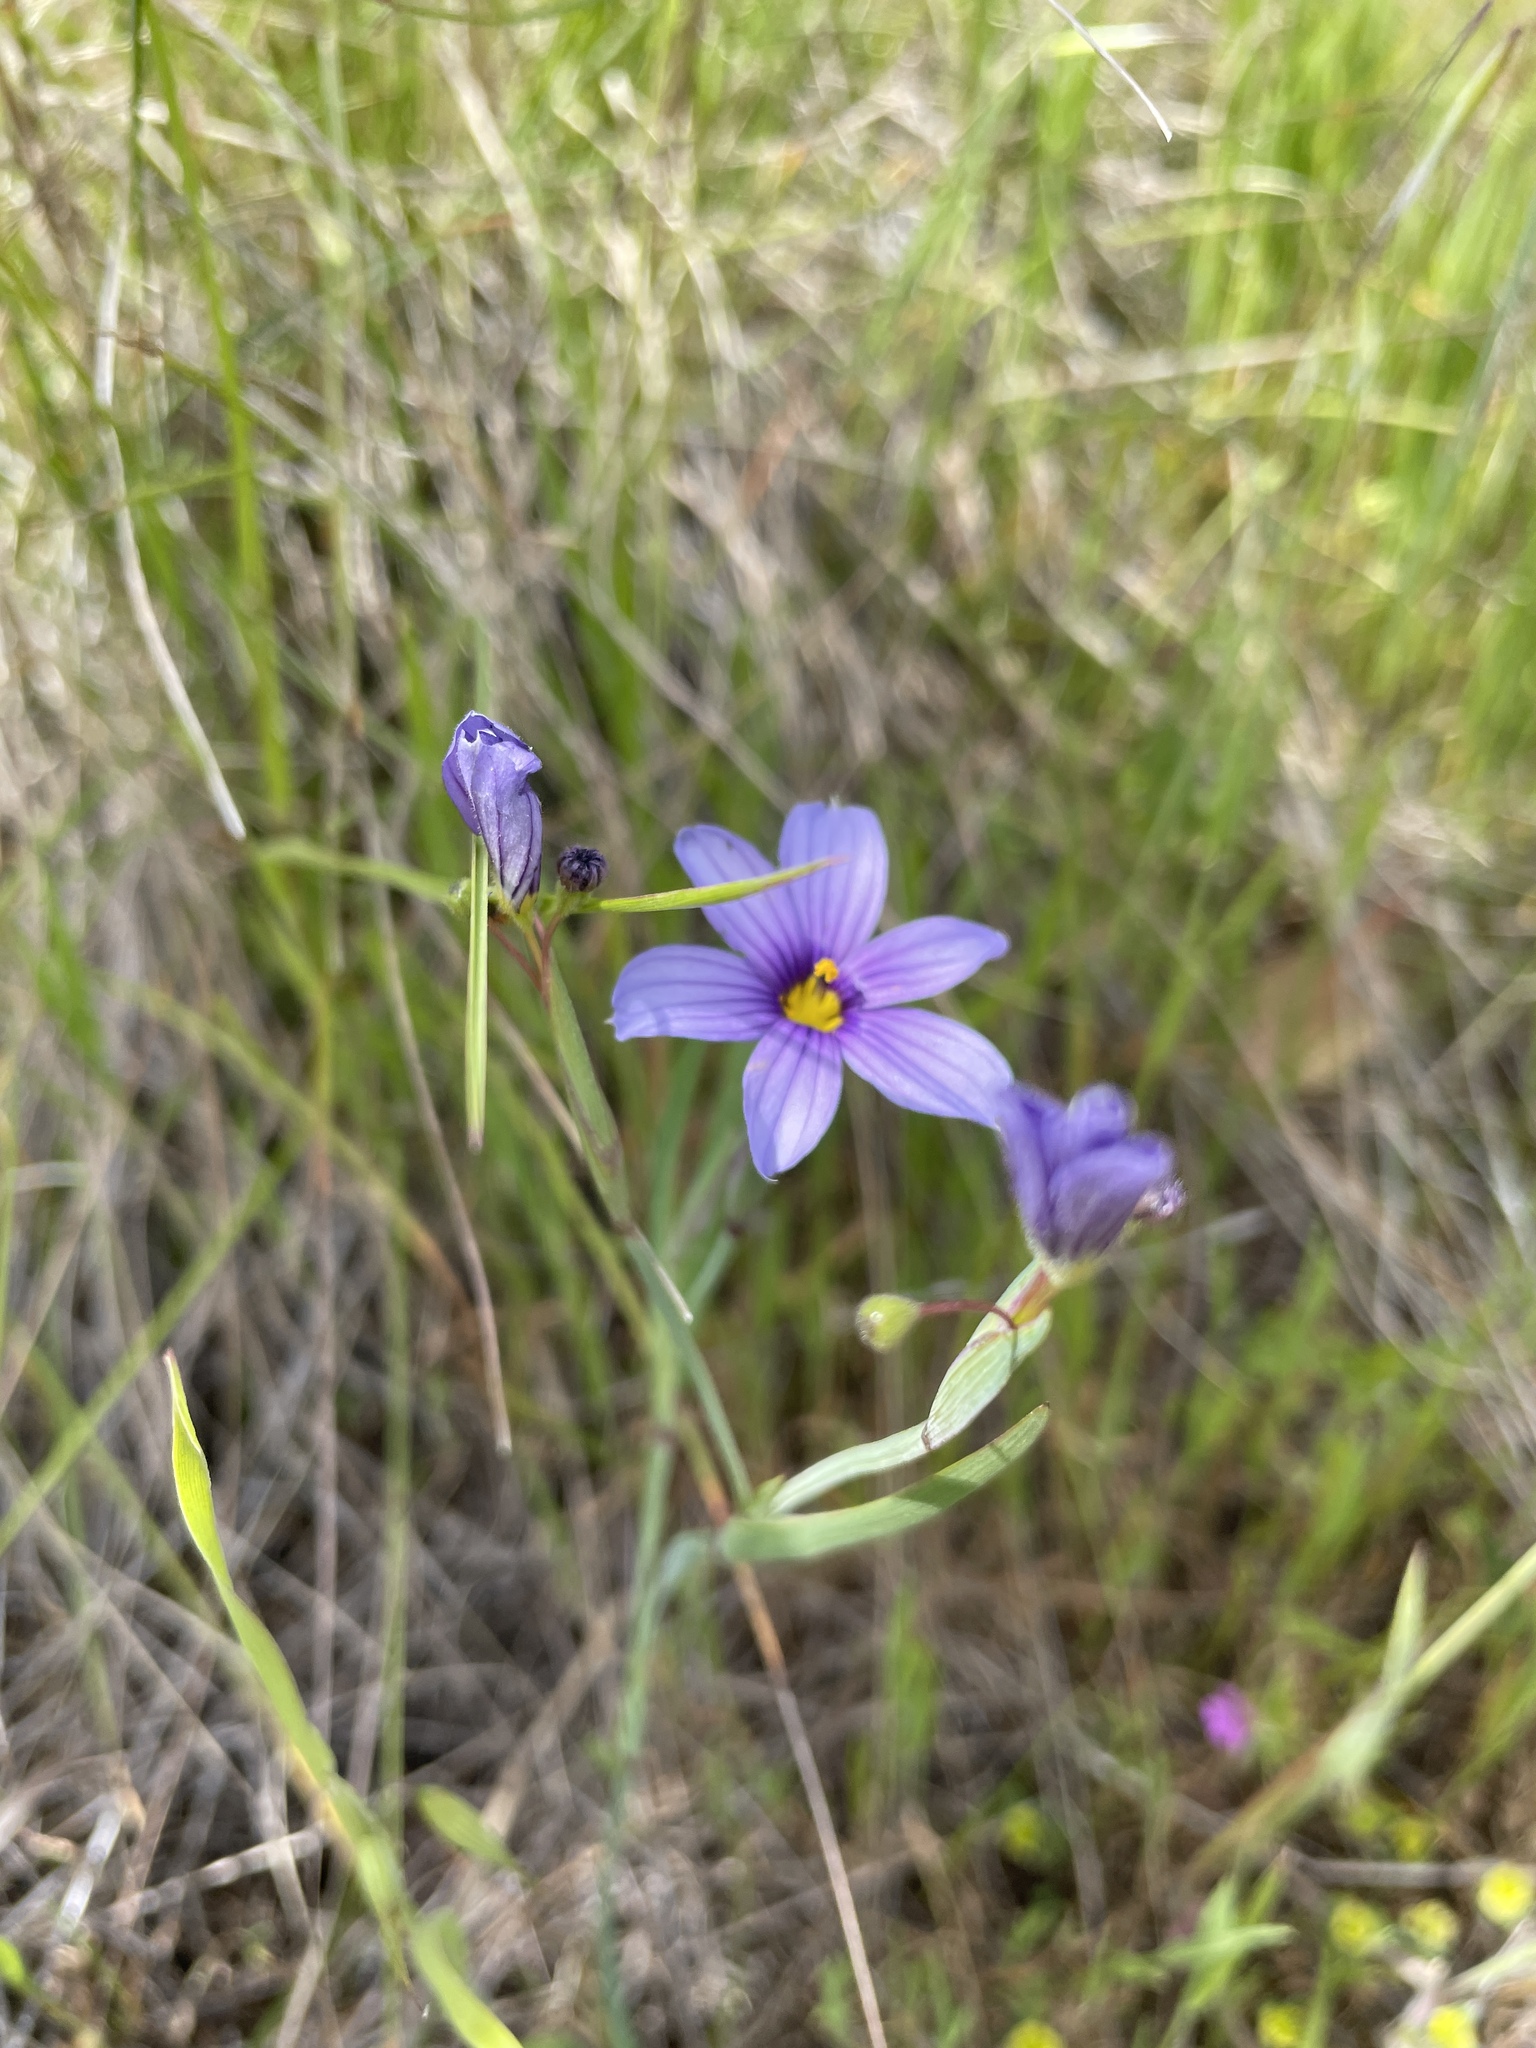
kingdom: Plantae
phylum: Tracheophyta
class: Liliopsida
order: Asparagales
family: Iridaceae
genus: Sisyrinchium
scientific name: Sisyrinchium bellum
